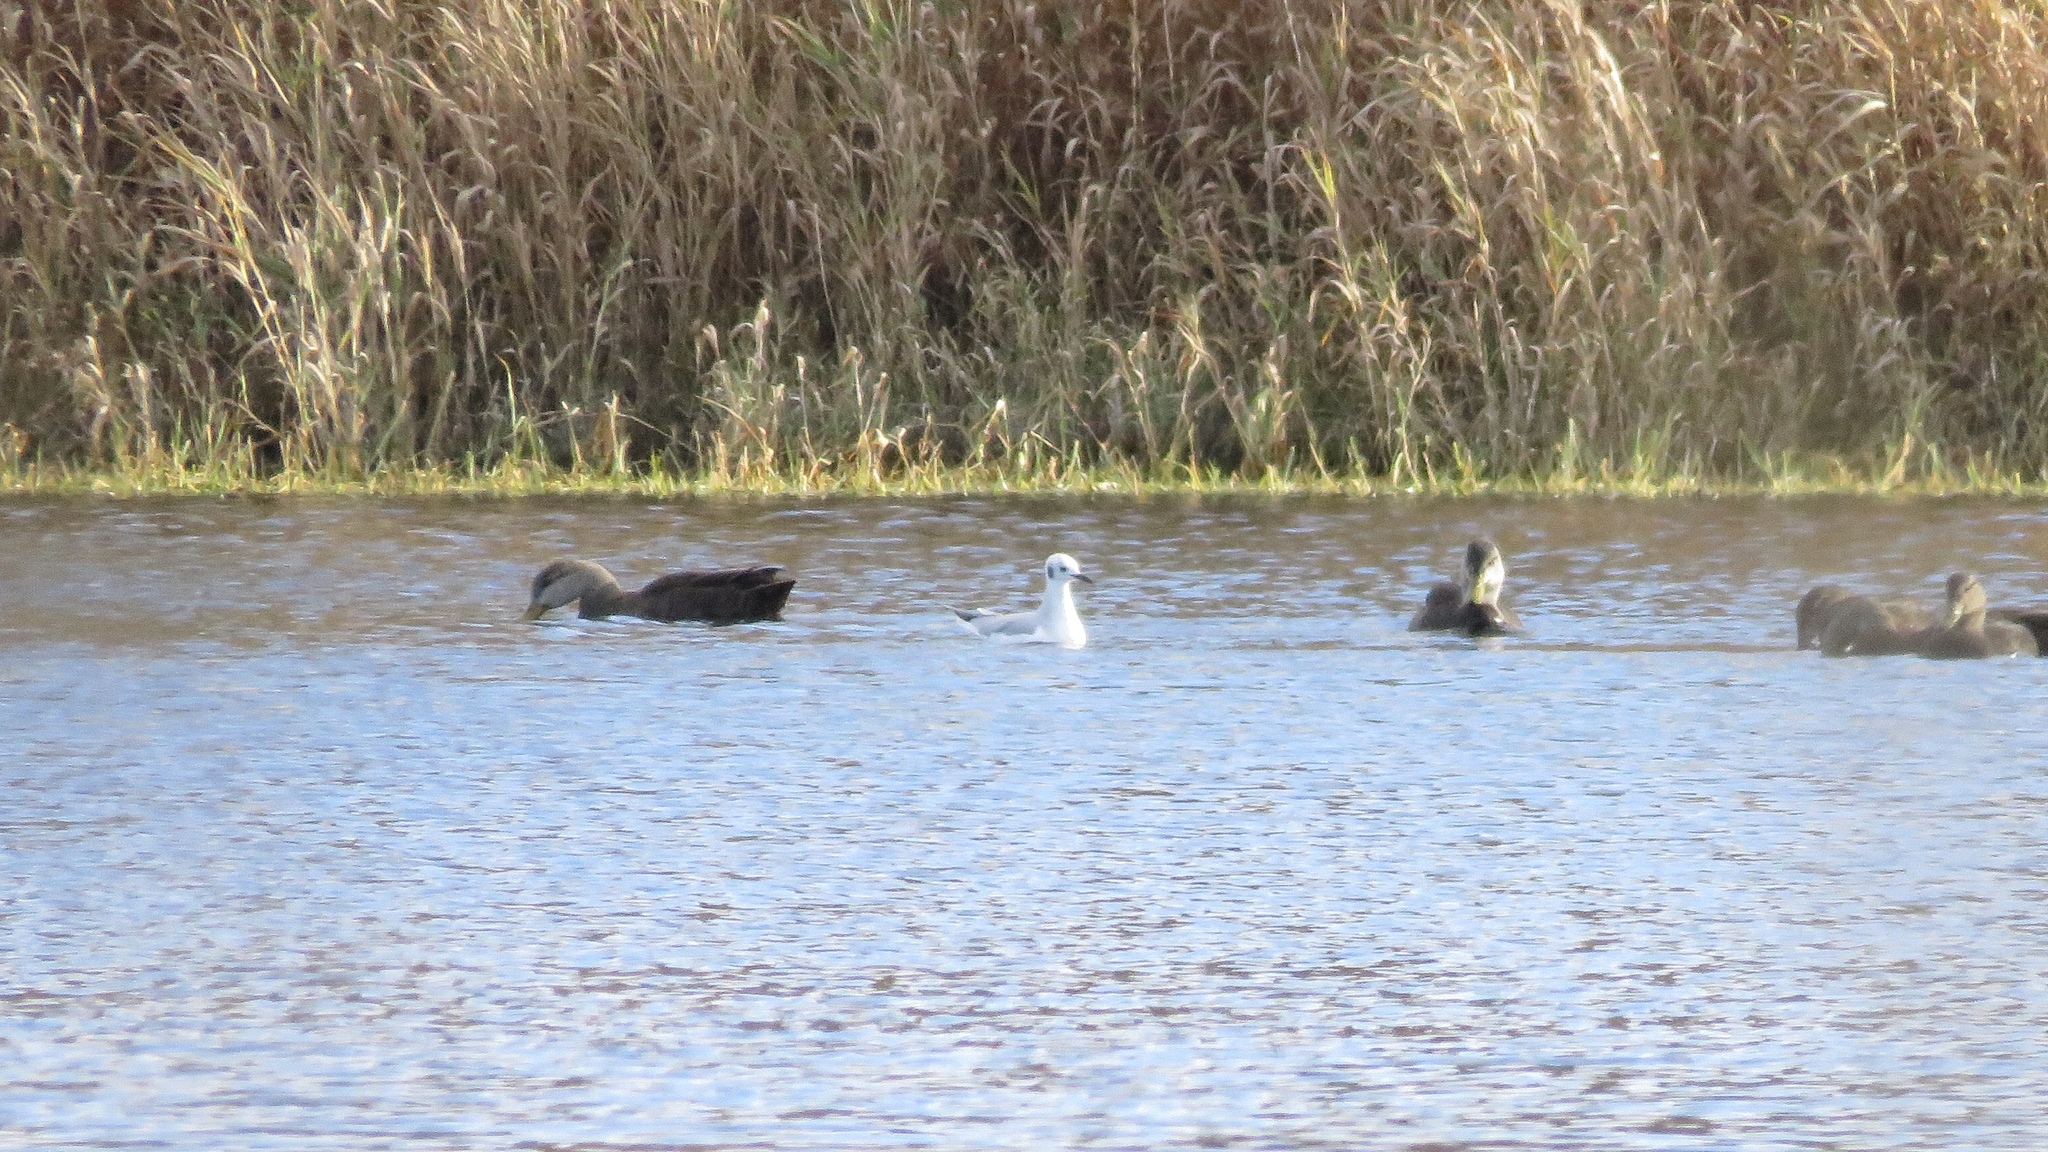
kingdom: Animalia
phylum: Chordata
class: Aves
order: Charadriiformes
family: Laridae
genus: Chroicocephalus
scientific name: Chroicocephalus philadelphia
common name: Bonaparte's gull
